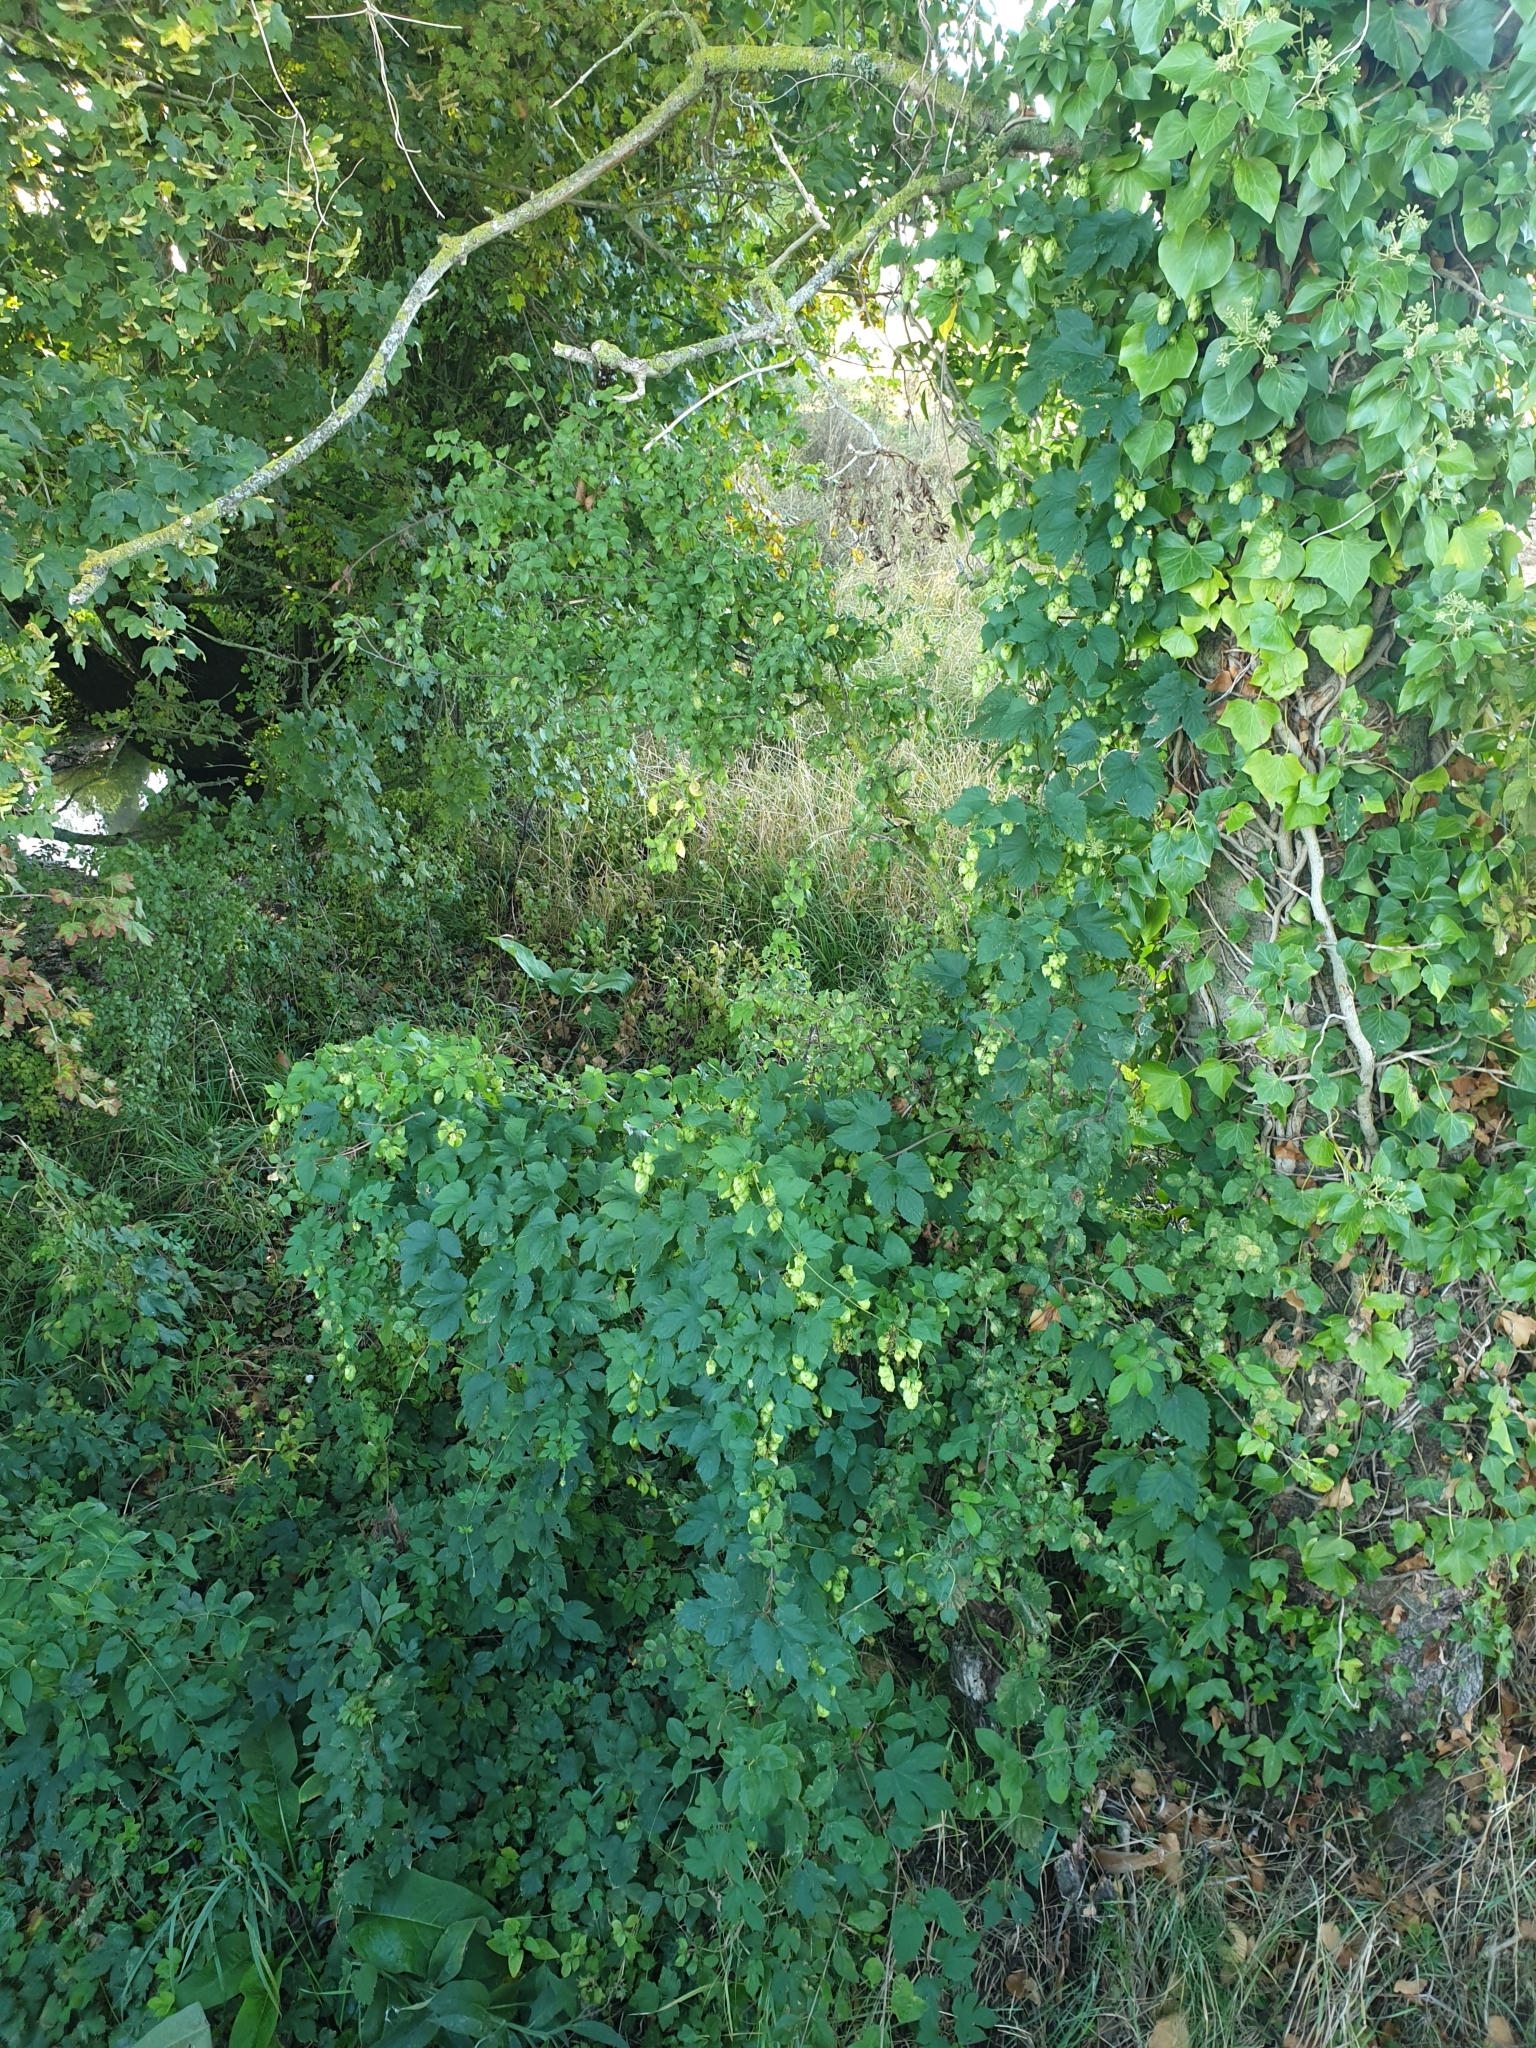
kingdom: Plantae
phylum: Tracheophyta
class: Magnoliopsida
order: Rosales
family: Cannabaceae
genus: Humulus
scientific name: Humulus lupulus
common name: Hop
